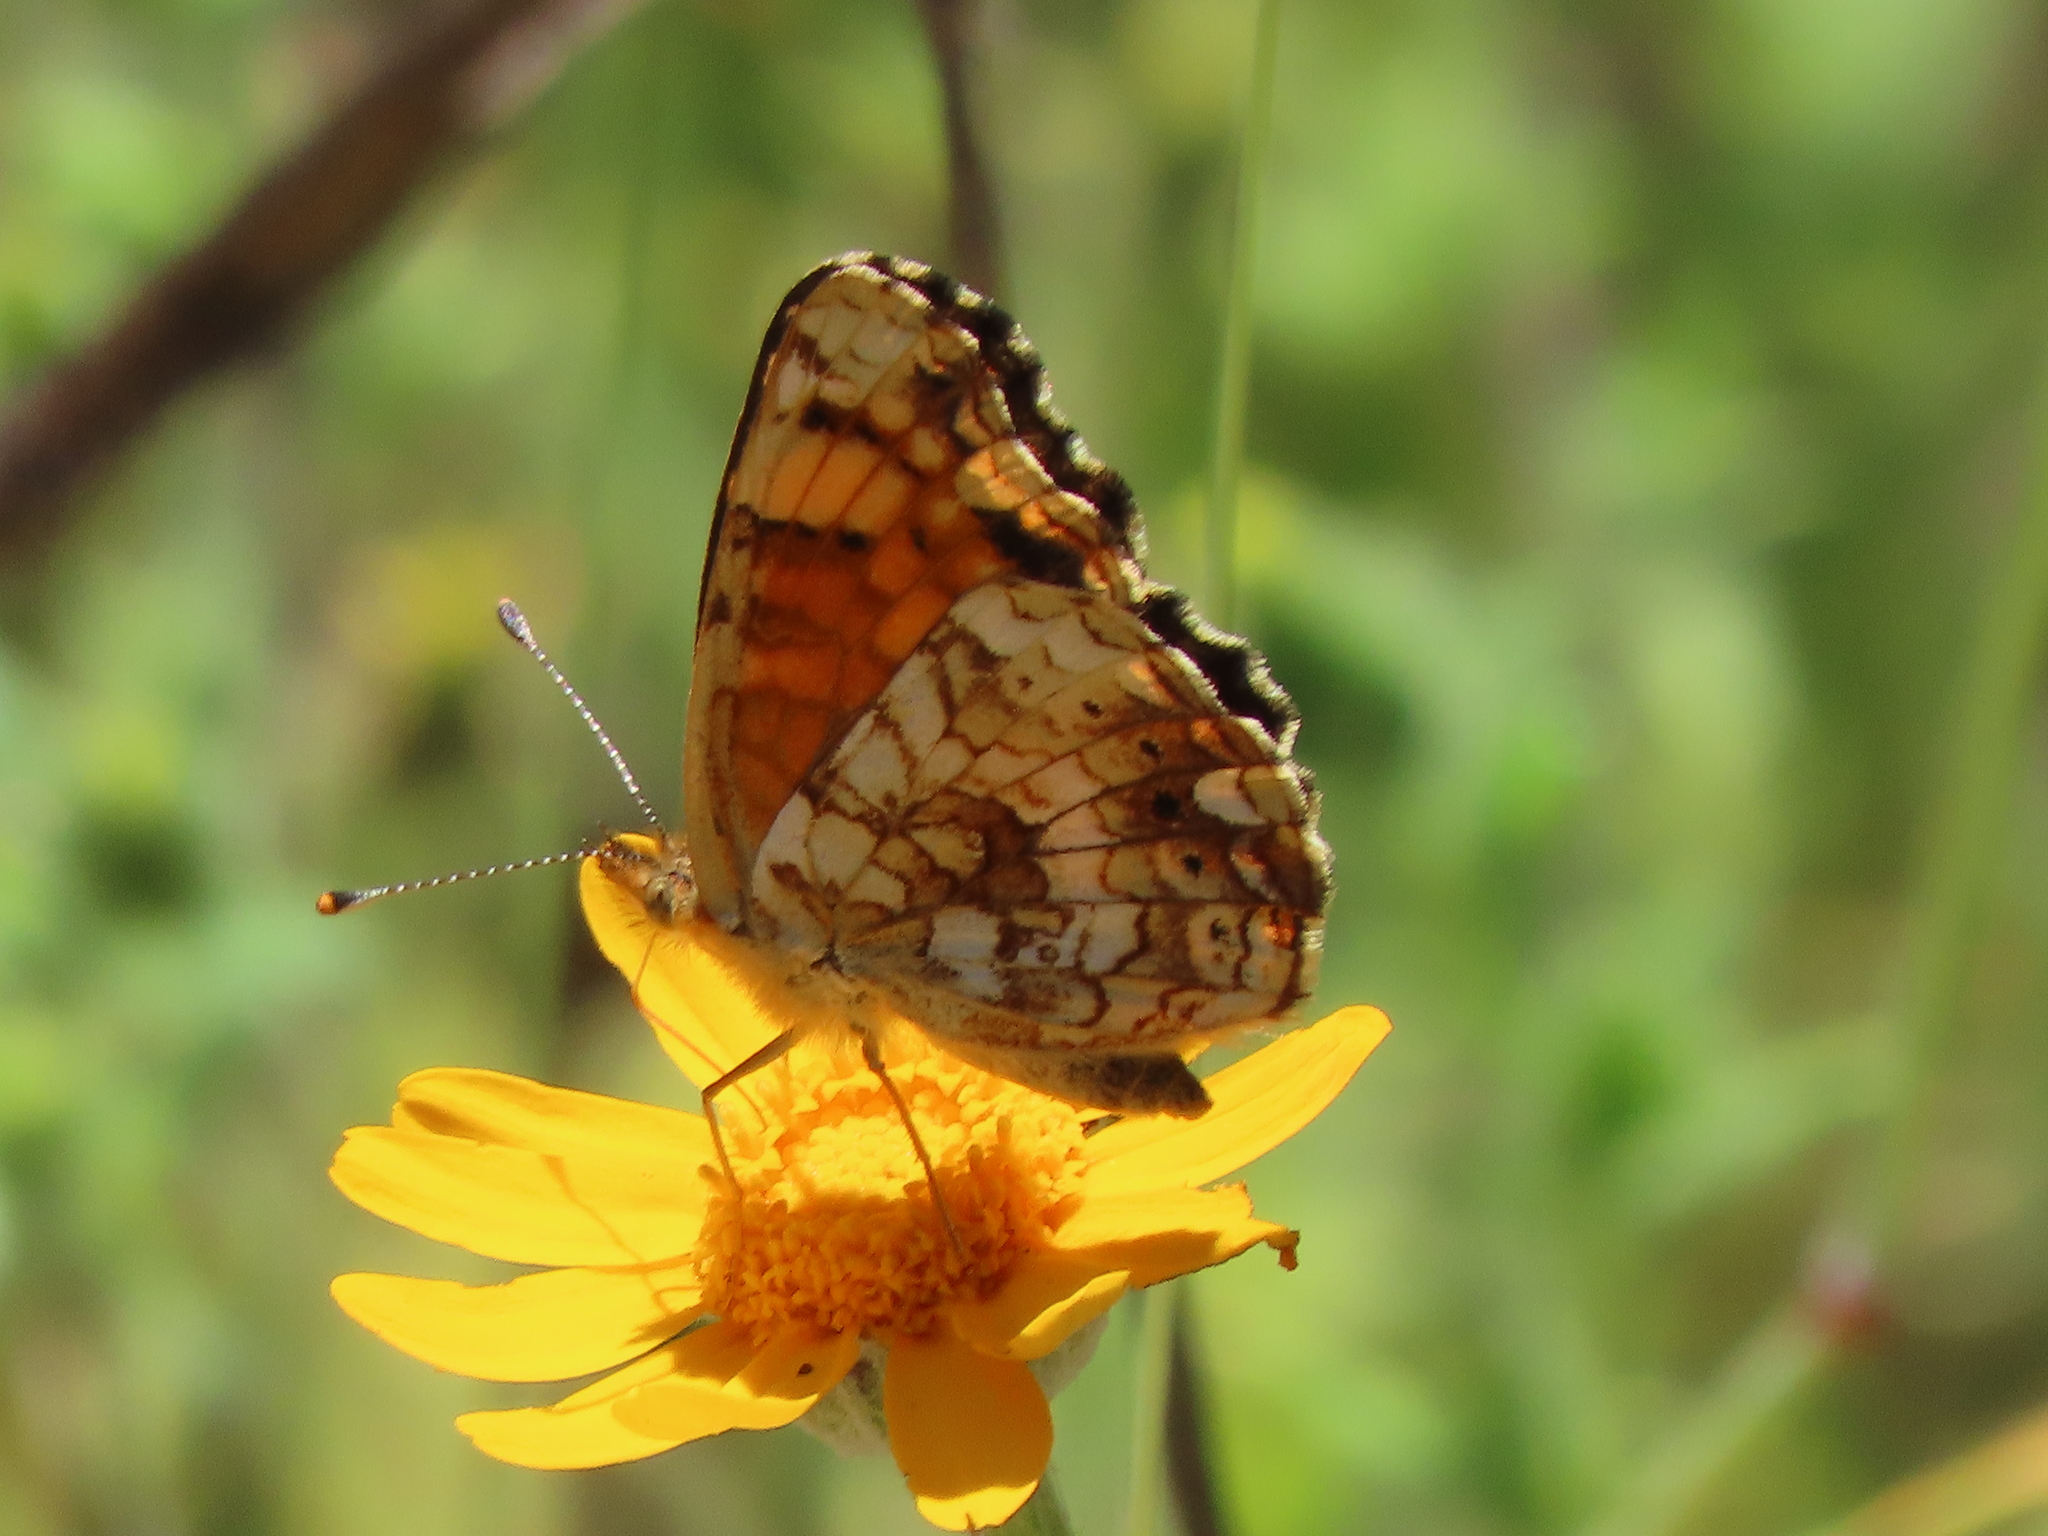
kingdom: Animalia
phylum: Arthropoda
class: Insecta
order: Lepidoptera
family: Nymphalidae
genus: Eresia
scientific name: Eresia aveyrona
